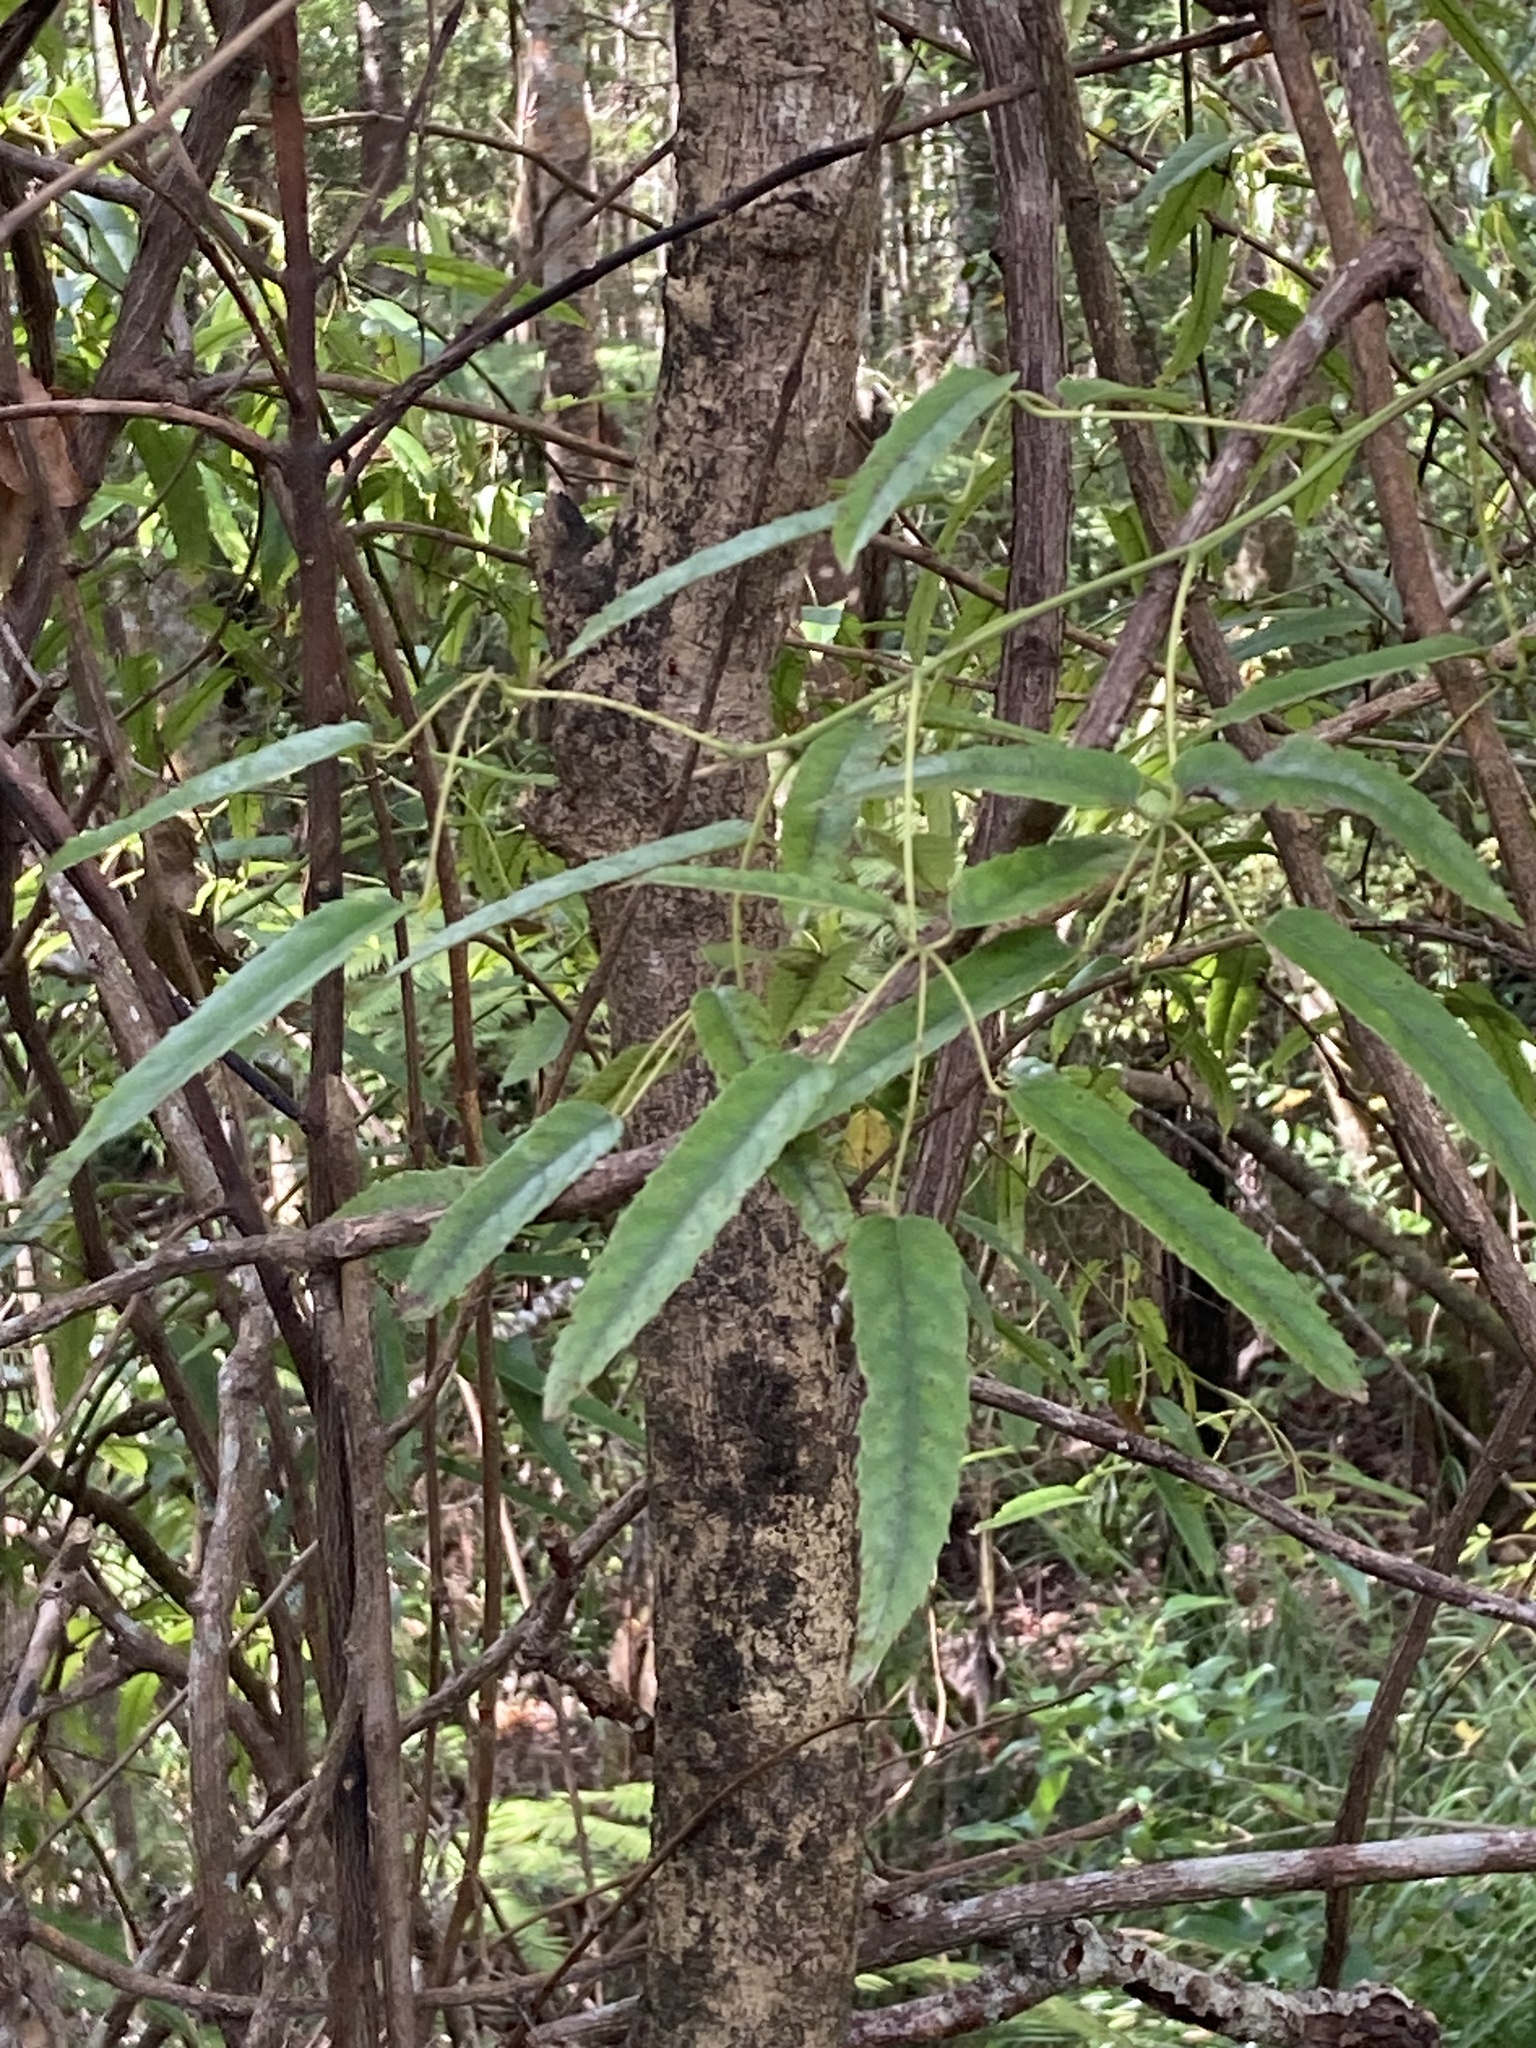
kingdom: Plantae
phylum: Tracheophyta
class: Magnoliopsida
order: Rosales
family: Rosaceae
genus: Rubus
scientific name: Rubus cissoides
